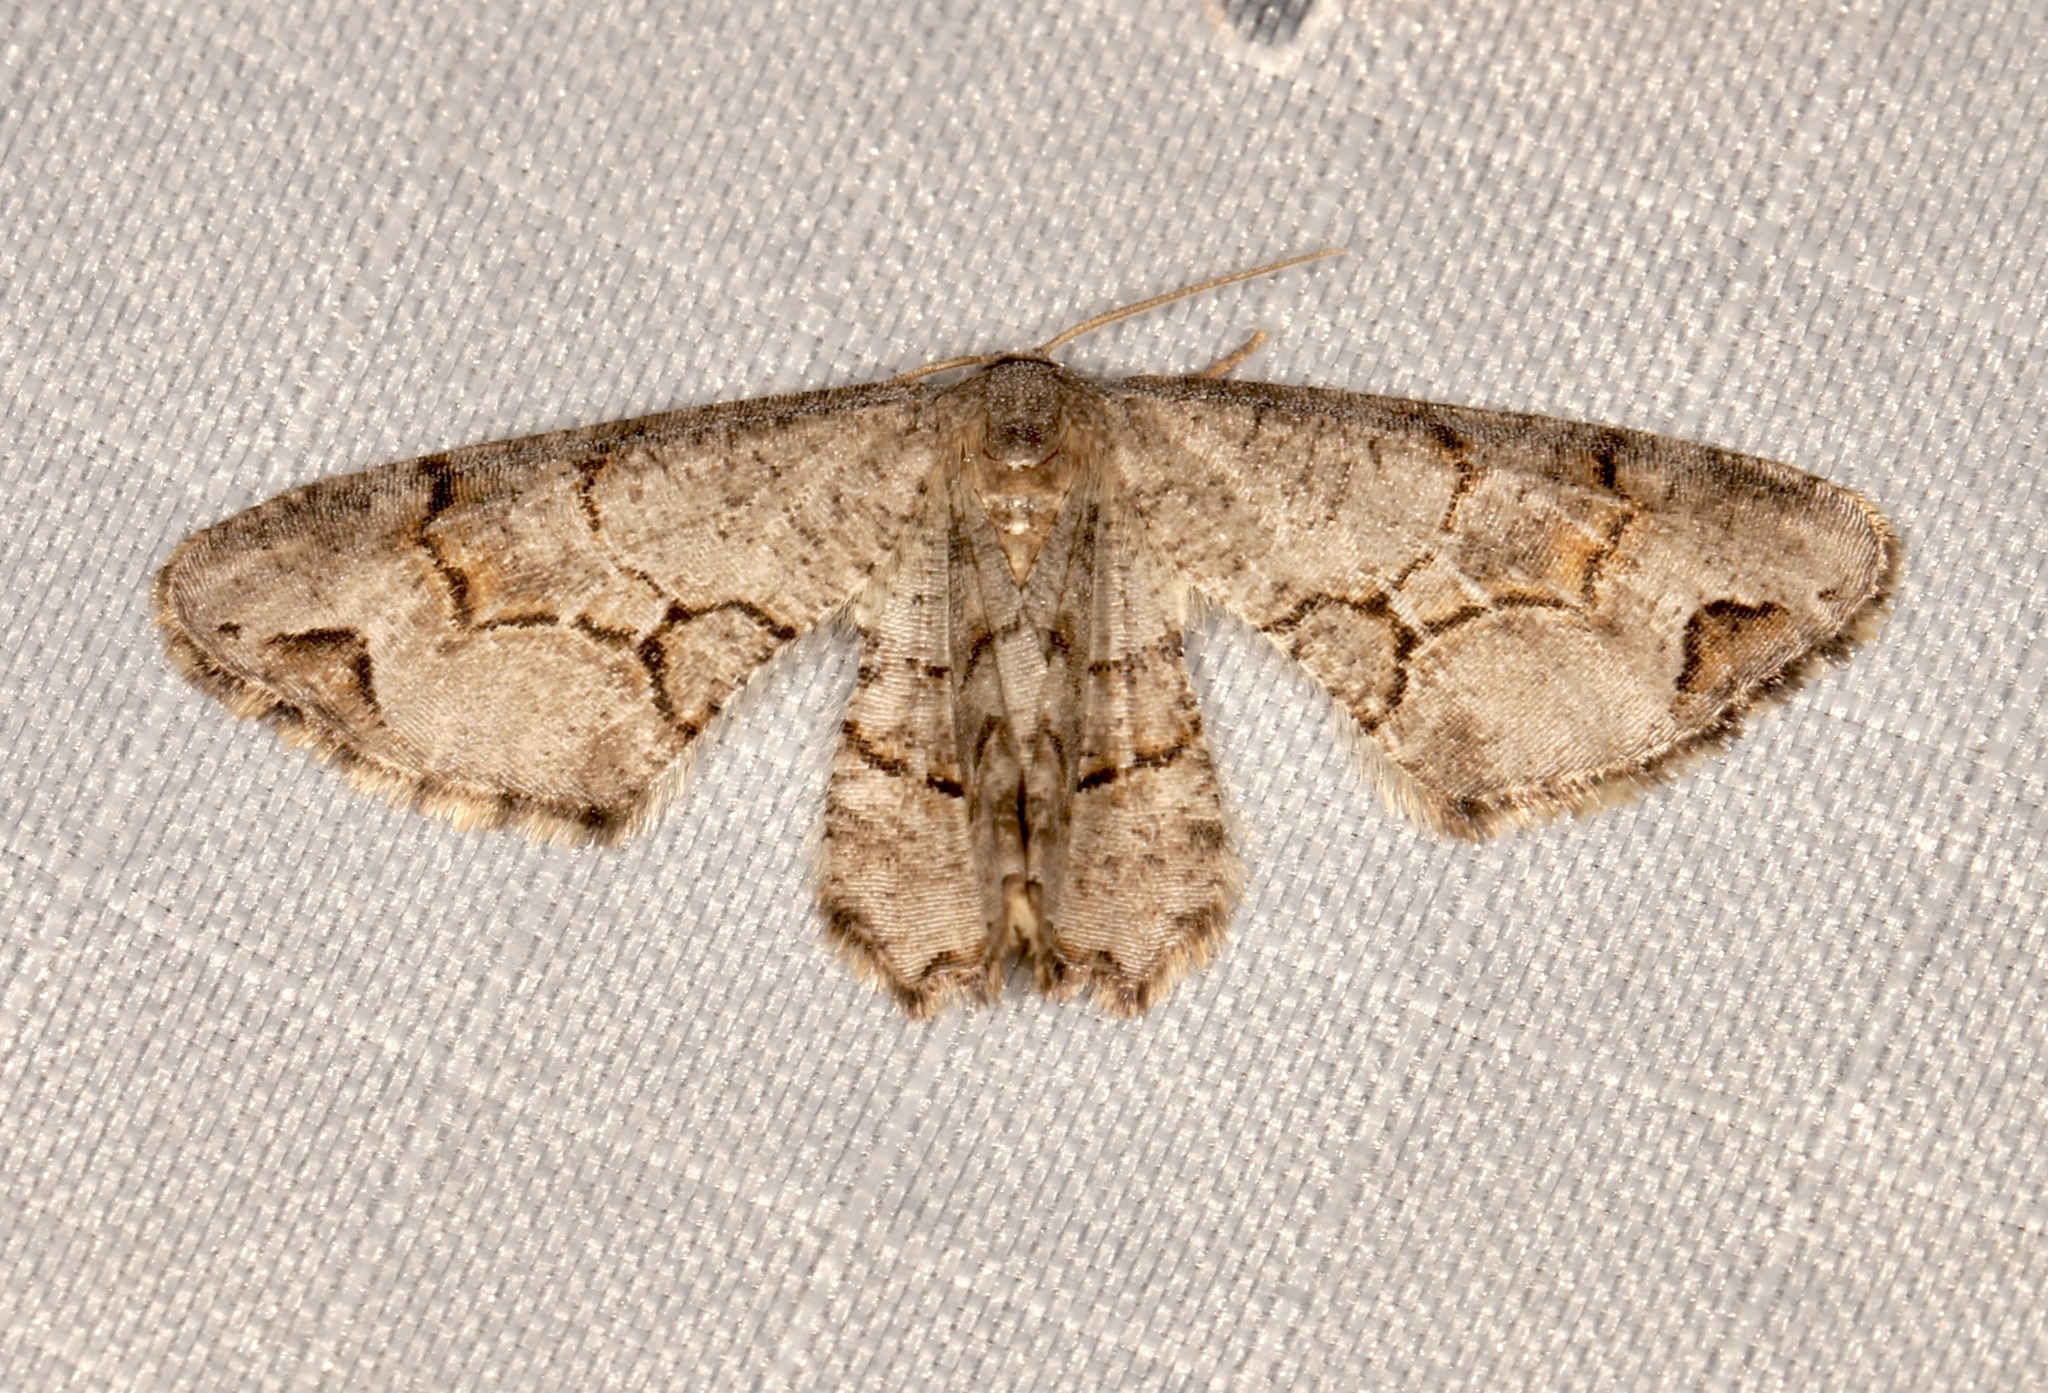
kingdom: Animalia
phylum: Arthropoda
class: Insecta
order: Lepidoptera
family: Uraniidae
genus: Epiplema
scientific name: Epiplema Callizzia amorata
